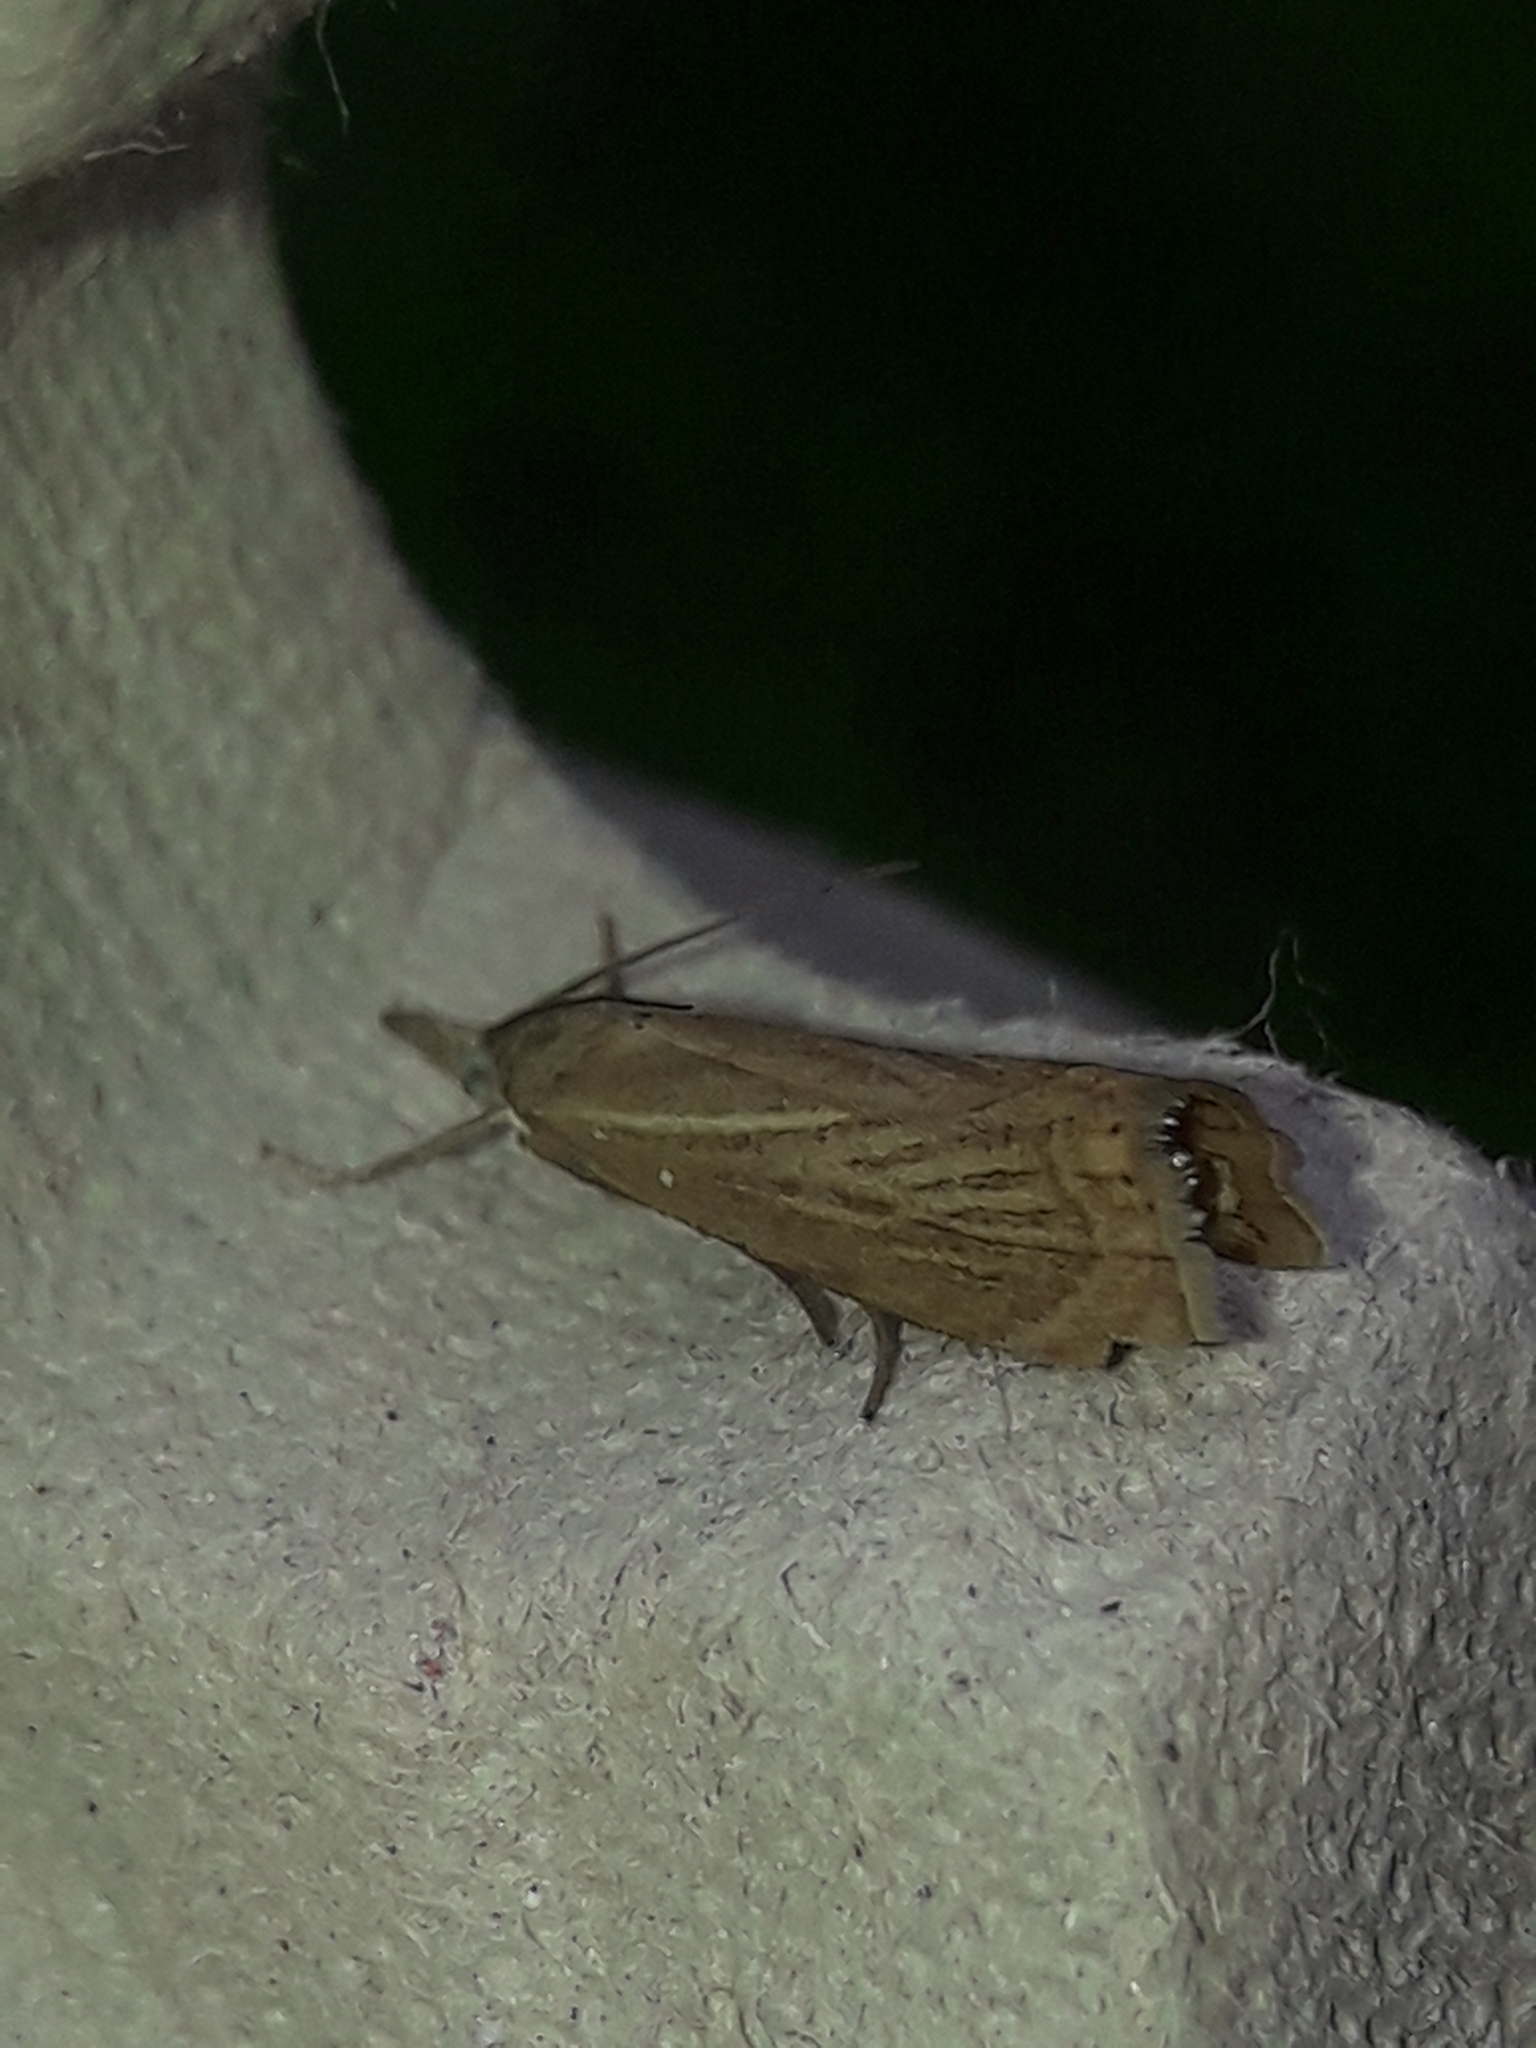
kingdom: Animalia
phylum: Arthropoda
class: Insecta
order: Lepidoptera
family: Crambidae
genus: Chrysoteuchia
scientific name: Chrysoteuchia culmella
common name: Garden grass-veneer
